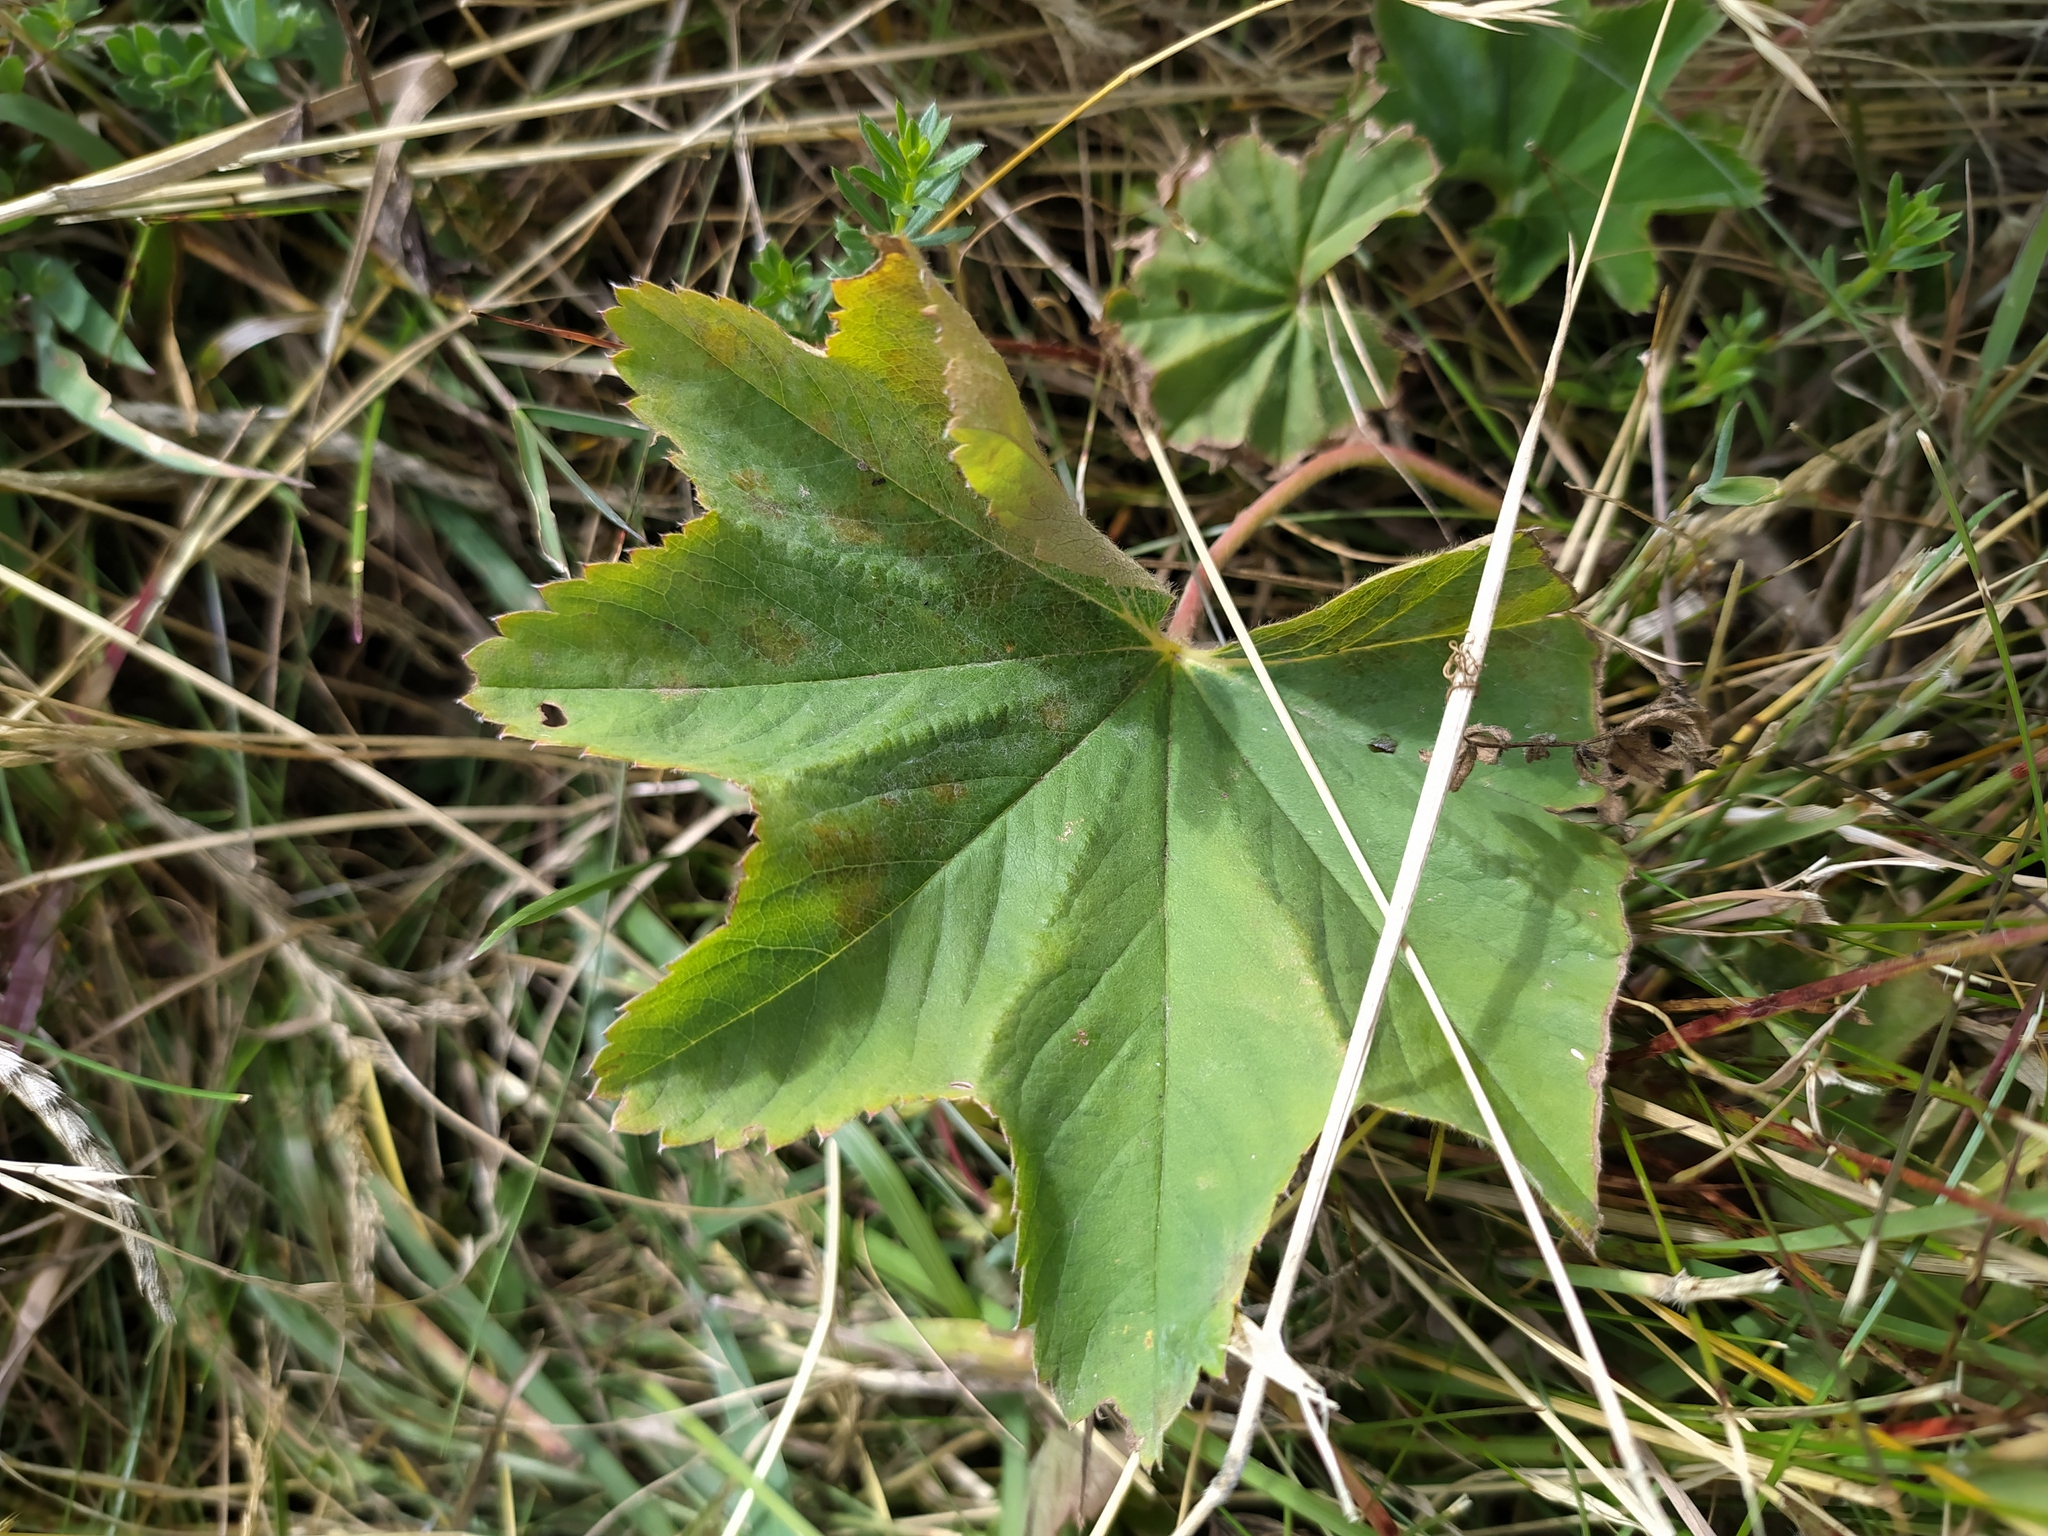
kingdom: Plantae
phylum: Tracheophyta
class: Magnoliopsida
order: Rosales
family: Rosaceae
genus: Alchemilla
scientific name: Alchemilla xanthochlora
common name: Intermediate lady's-mantle
